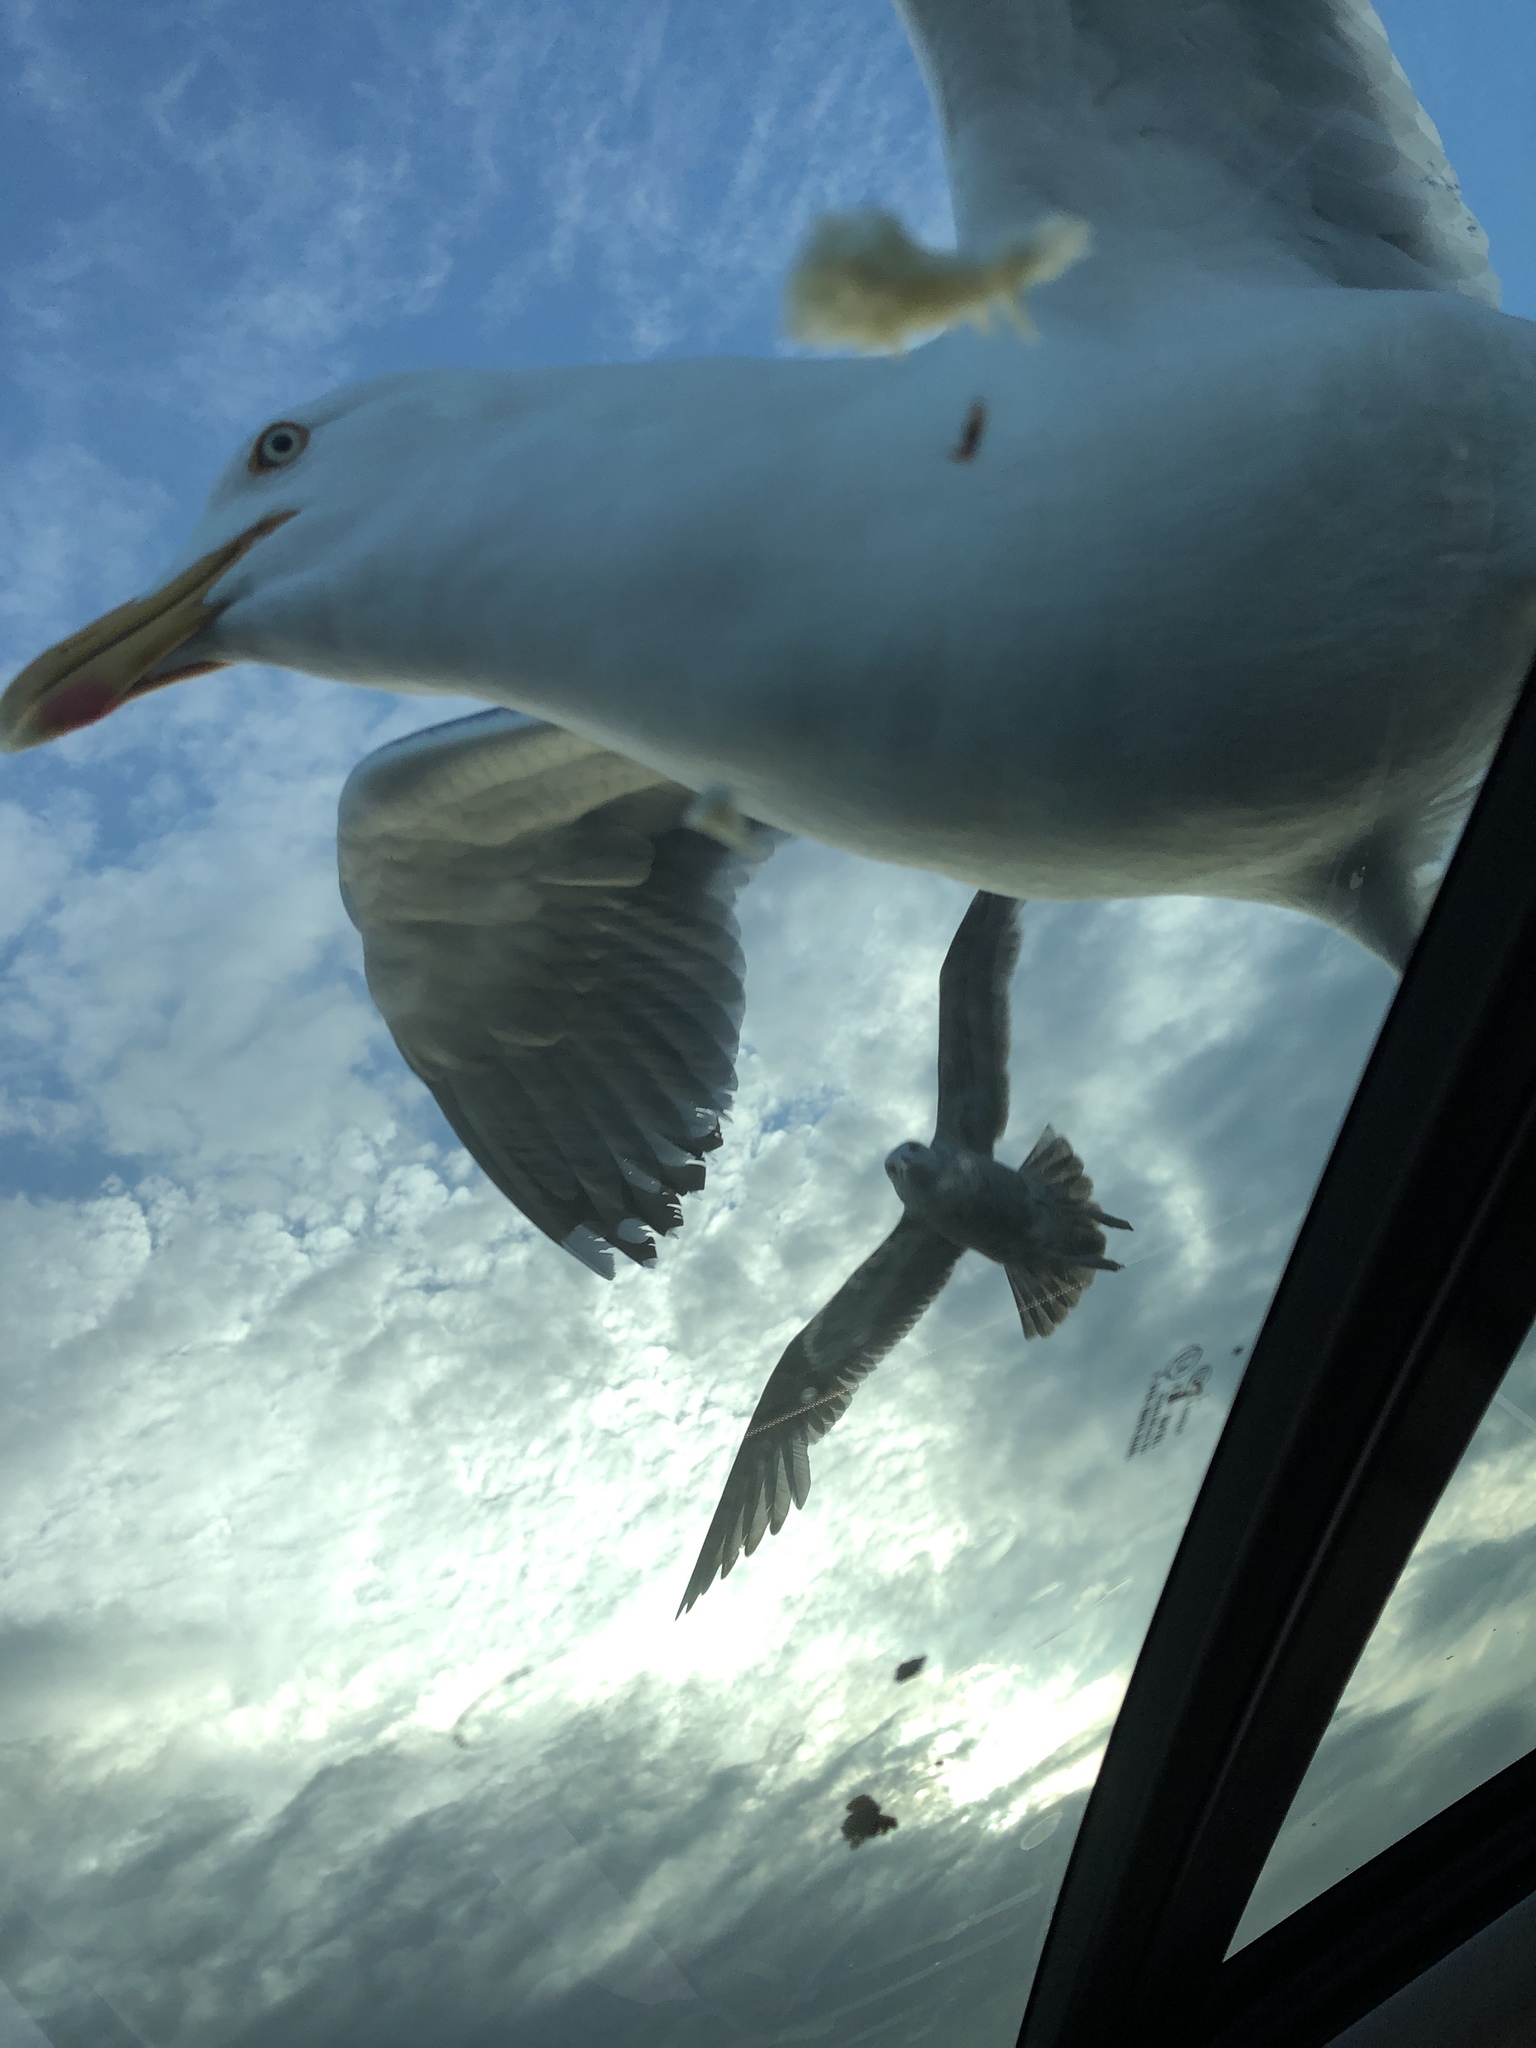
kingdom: Animalia
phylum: Chordata
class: Aves
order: Charadriiformes
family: Laridae
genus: Larus
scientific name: Larus argentatus
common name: Herring gull
